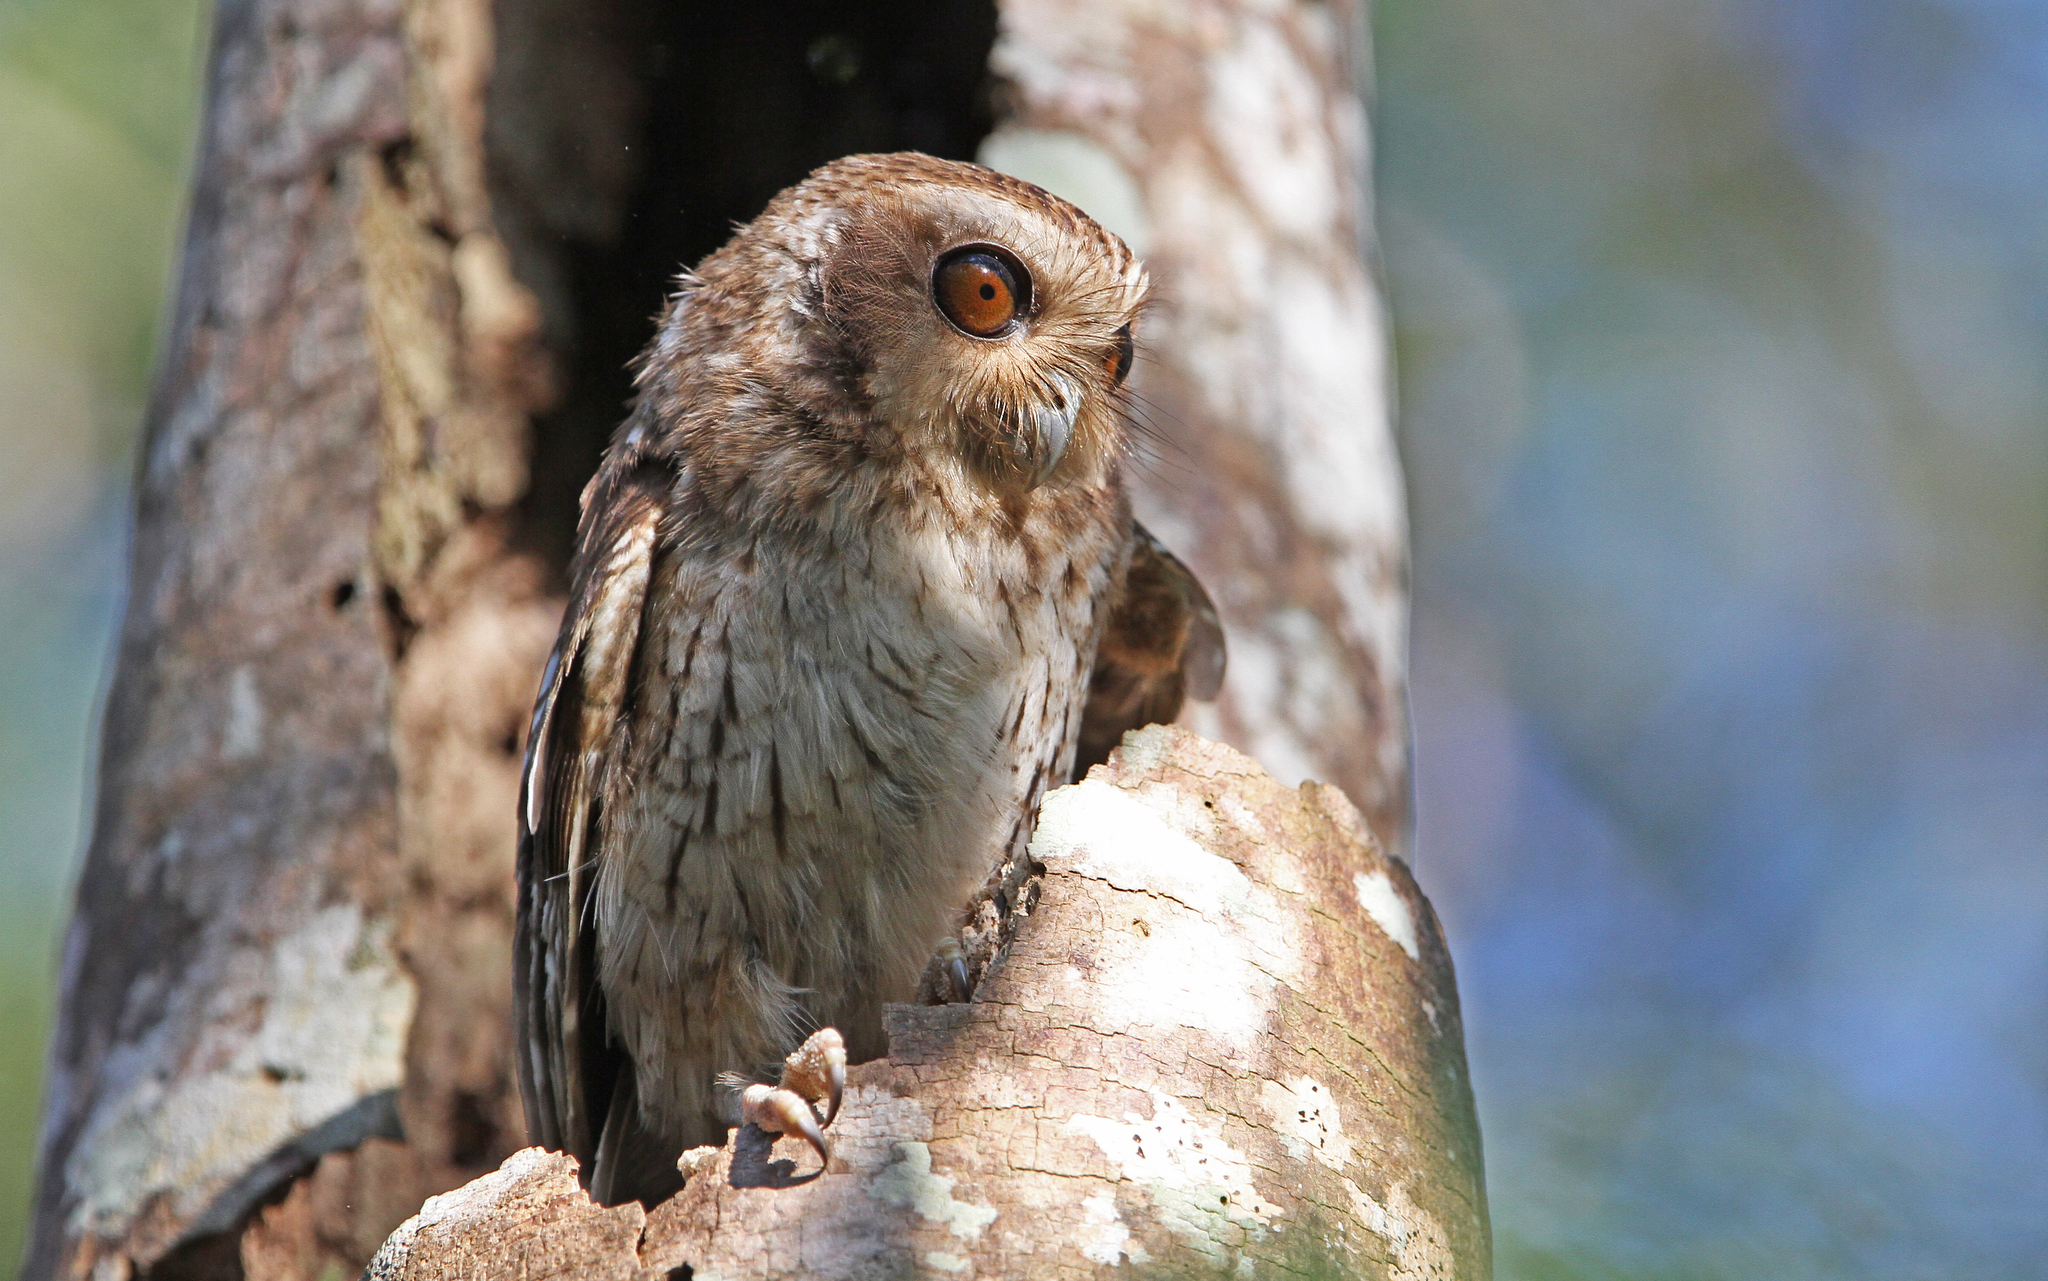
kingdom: Animalia
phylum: Chordata
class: Aves
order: Strigiformes
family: Strigidae
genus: Margarobyas
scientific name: Margarobyas lawrencii
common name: Bare-legged owl
